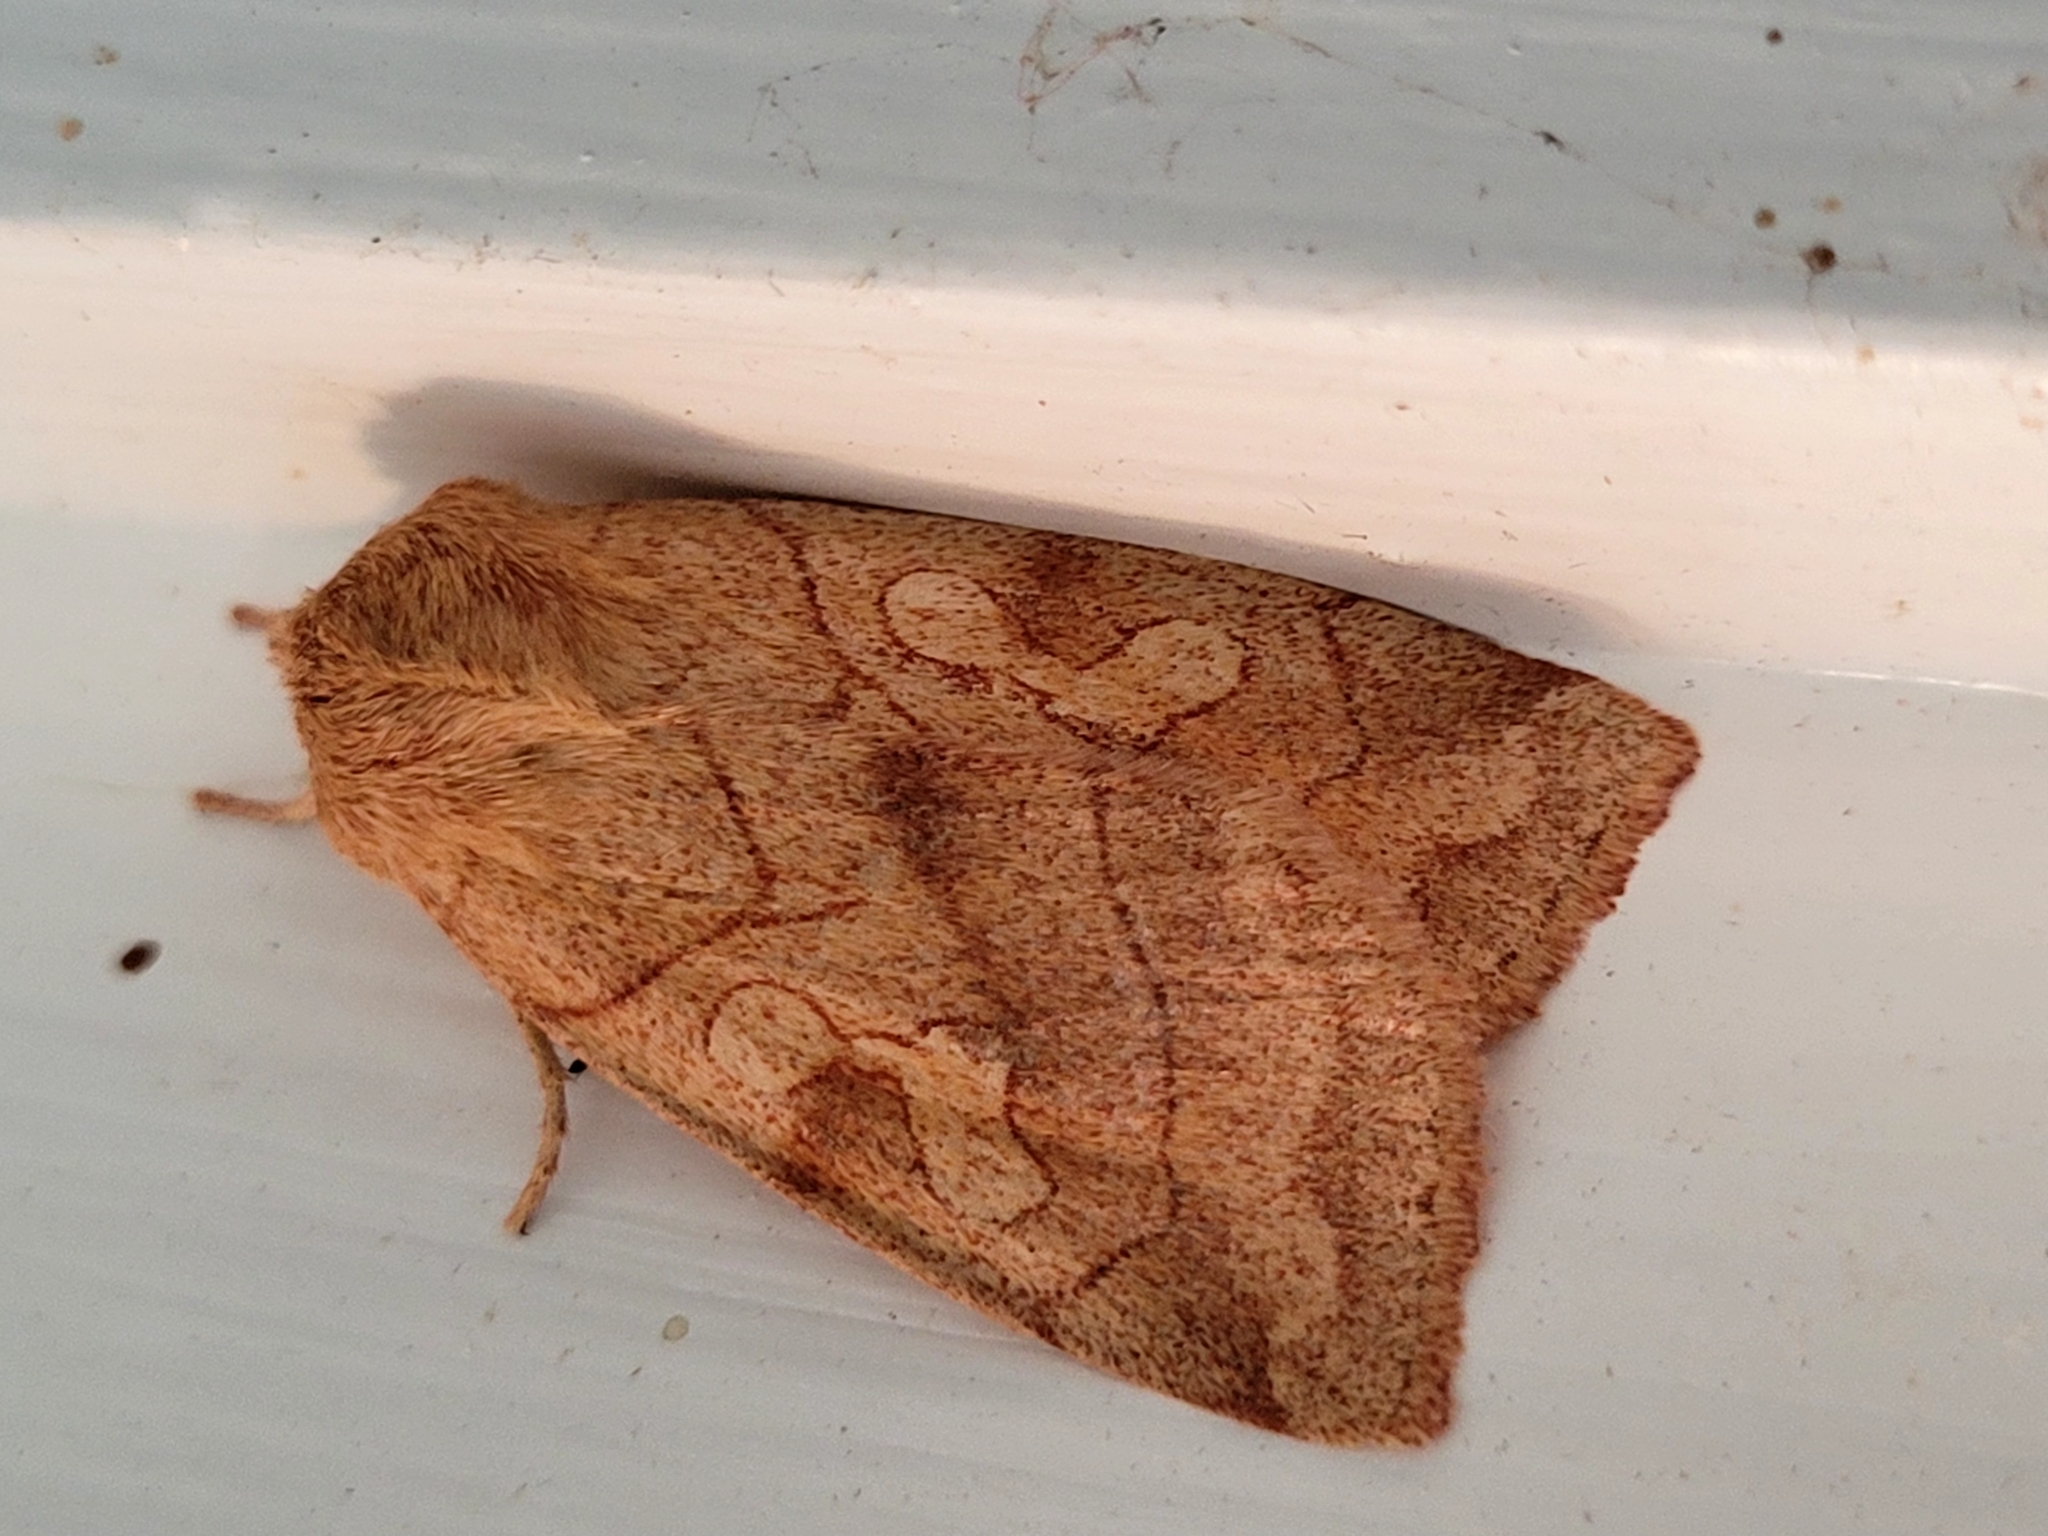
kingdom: Animalia
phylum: Arthropoda
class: Insecta
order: Lepidoptera
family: Noctuidae
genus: Enargia
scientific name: Enargia decolor
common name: Aspen twoleaf tier moth
